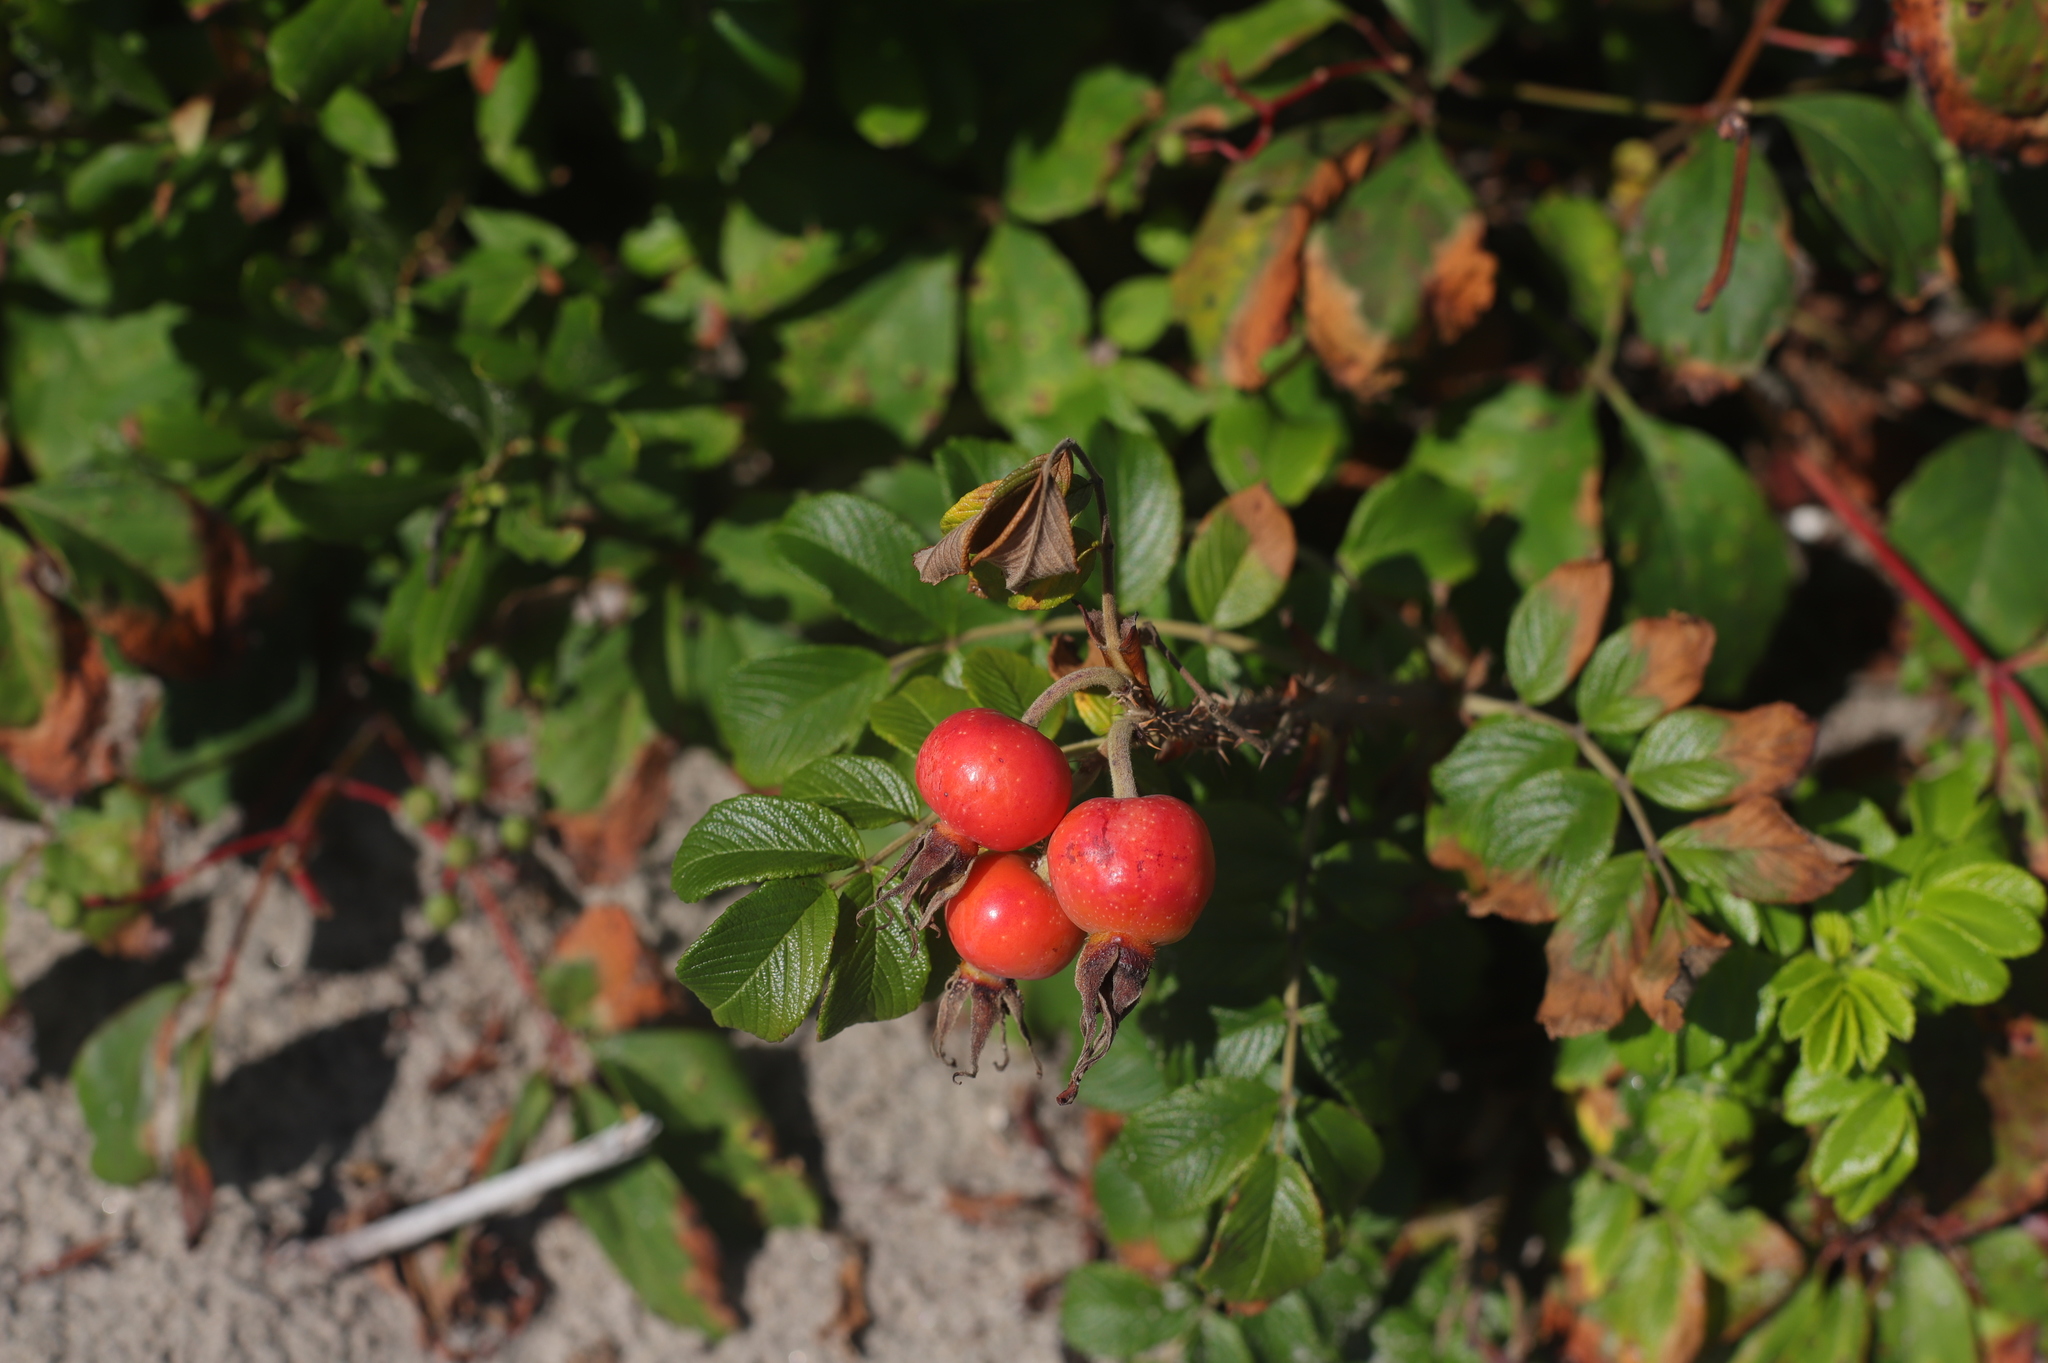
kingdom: Plantae
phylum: Tracheophyta
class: Magnoliopsida
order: Rosales
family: Rosaceae
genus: Rosa
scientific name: Rosa rugosa
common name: Japanese rose
